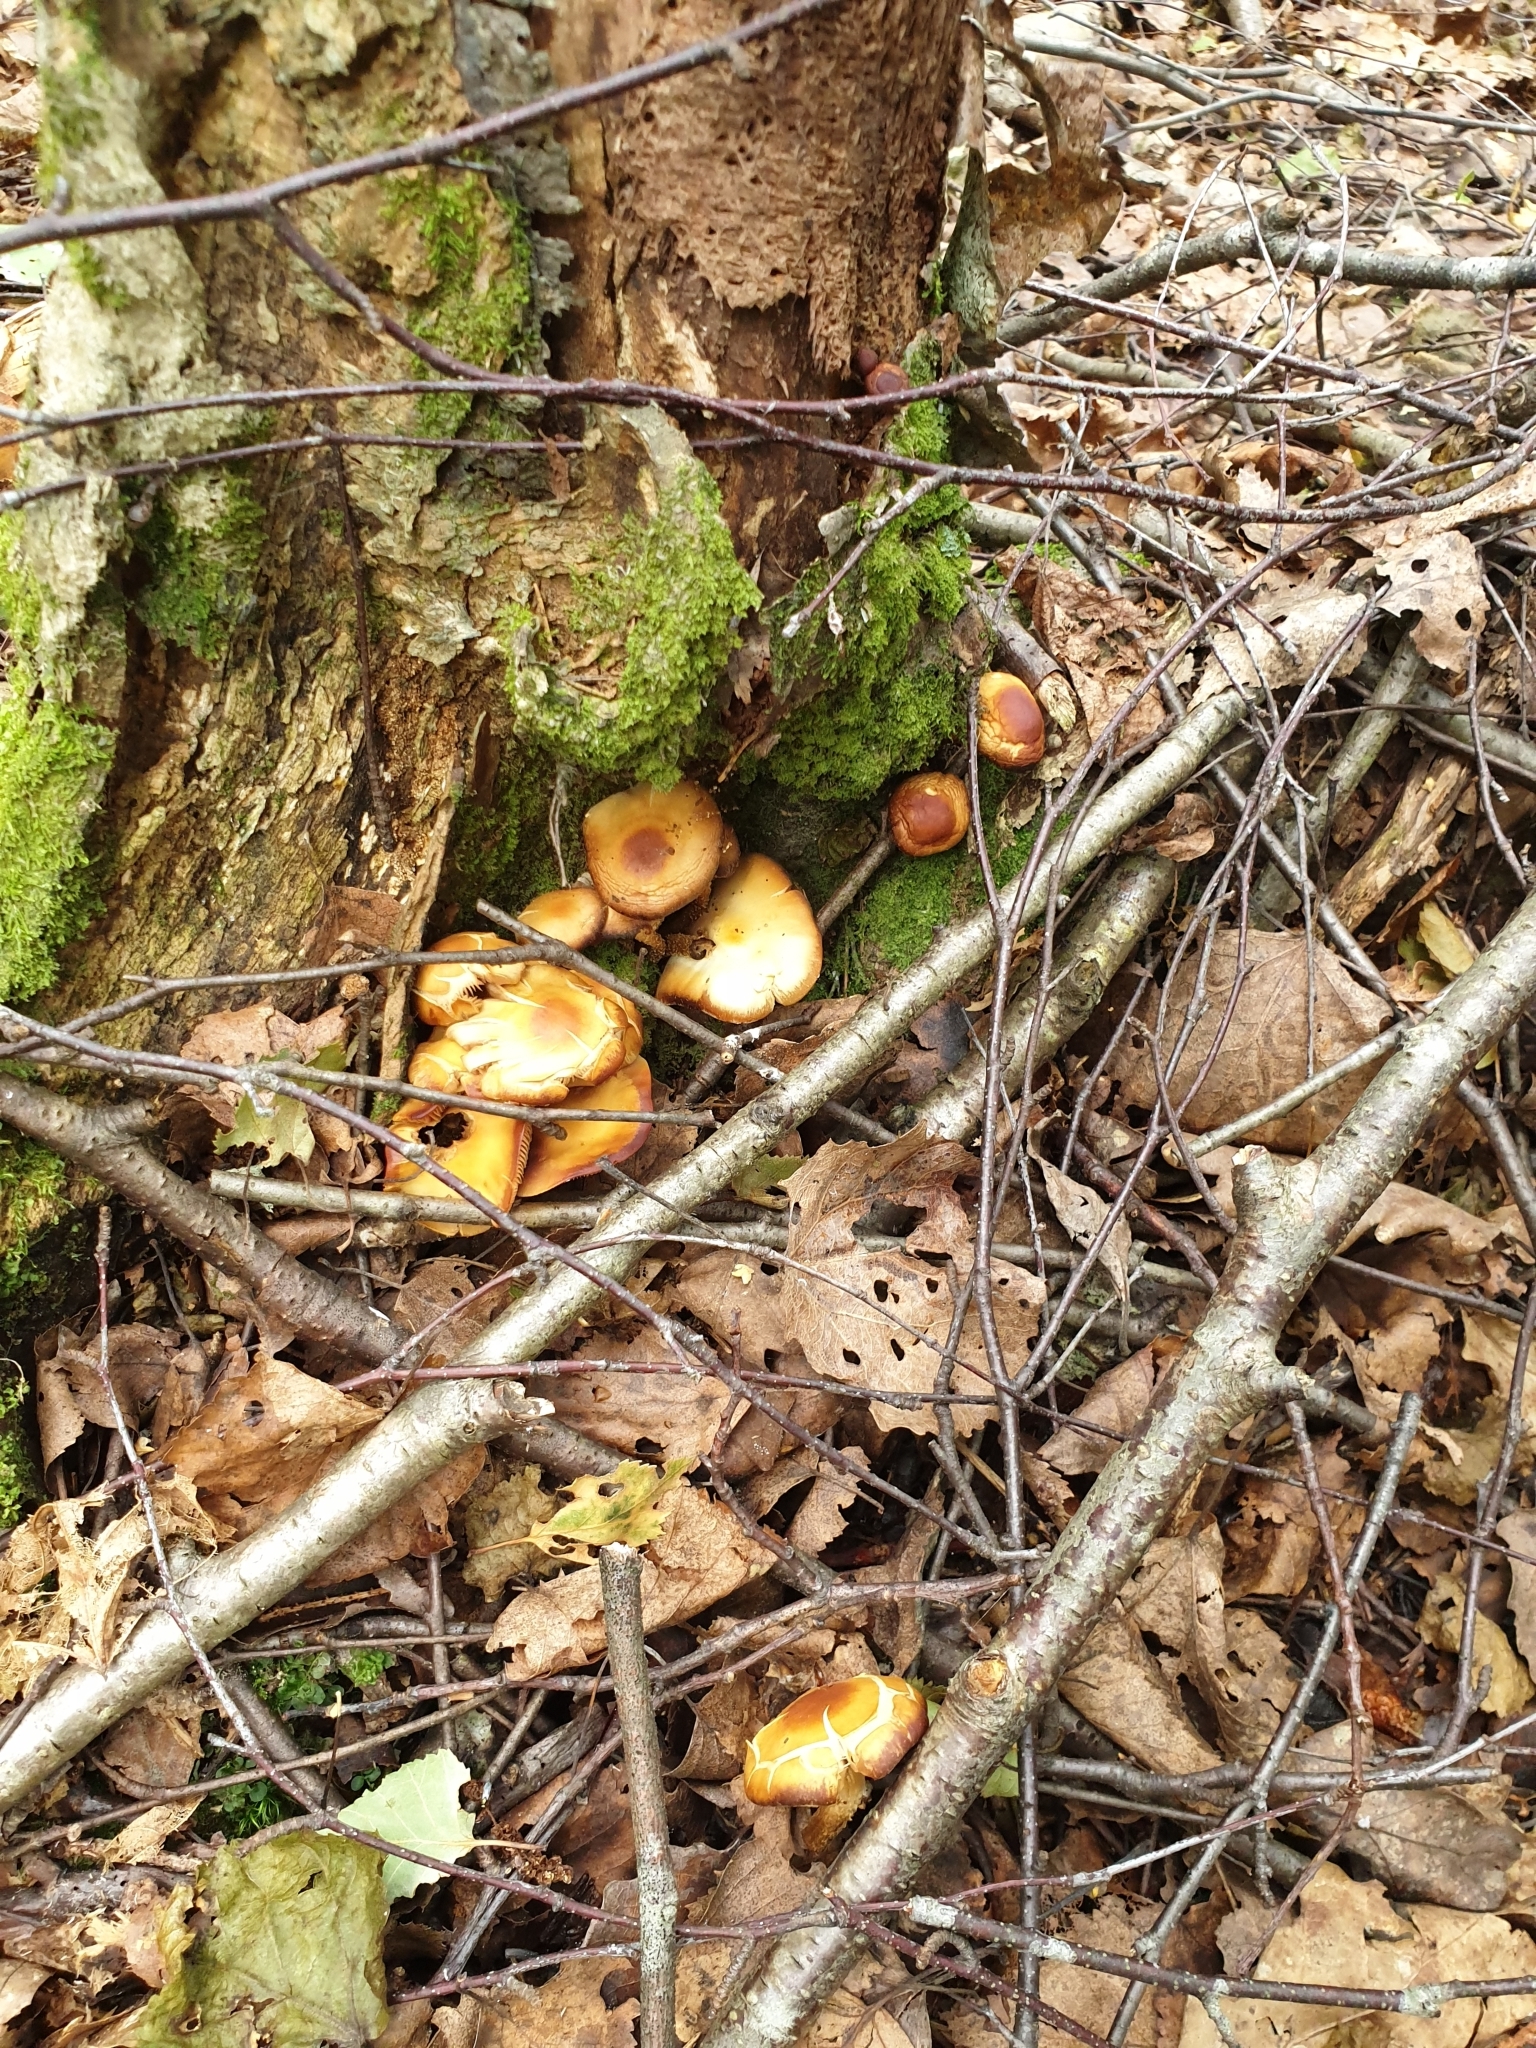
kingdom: Fungi
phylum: Basidiomycota
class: Agaricomycetes
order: Agaricales
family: Strophariaceae
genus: Kuehneromyces
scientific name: Kuehneromyces mutabilis
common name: Sheathed woodtuft
